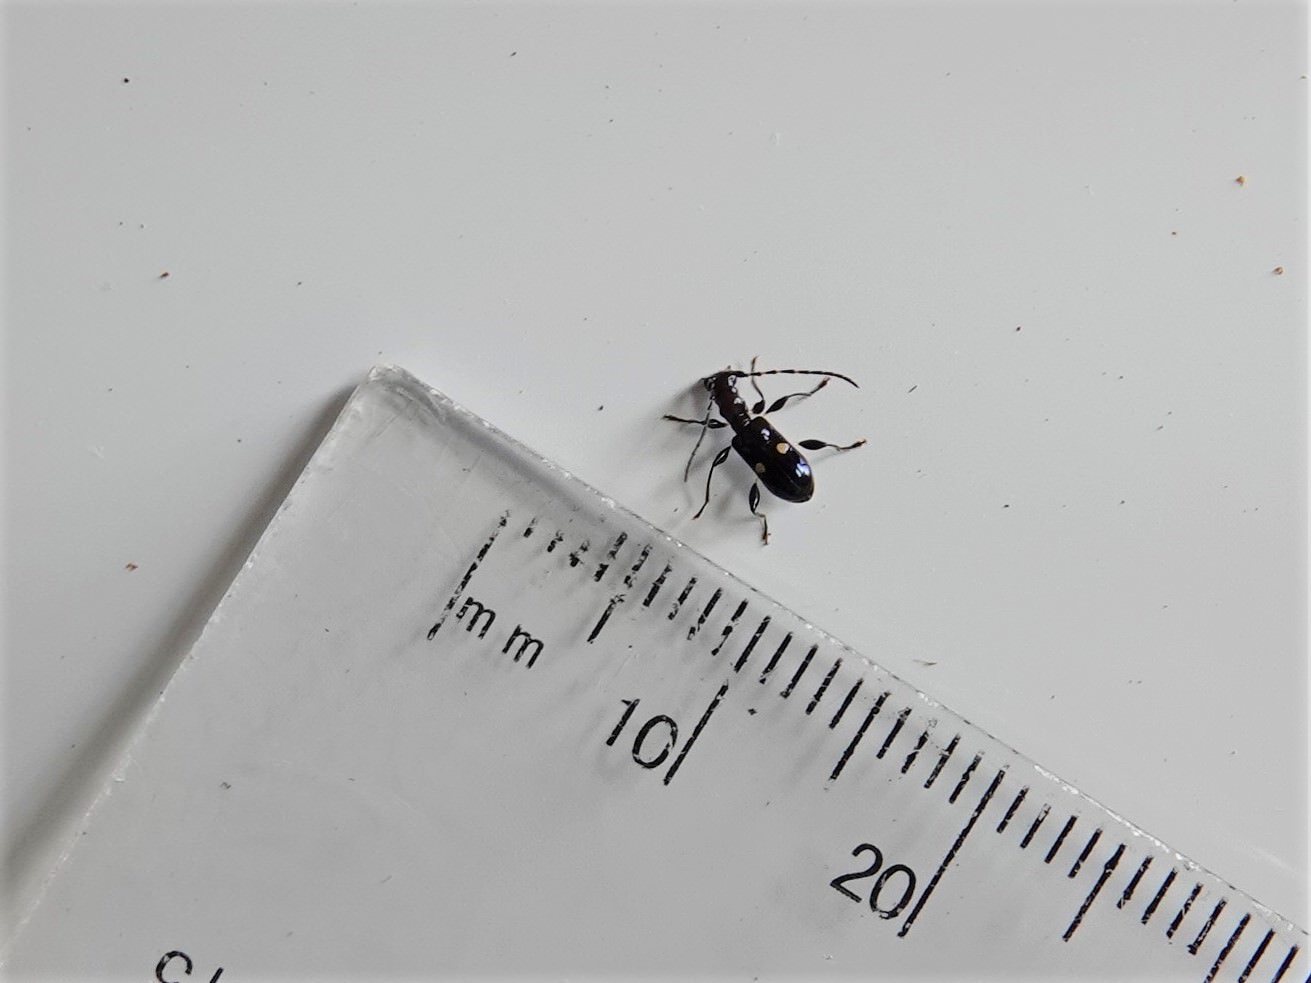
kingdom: Animalia
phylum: Arthropoda
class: Insecta
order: Coleoptera
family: Cerambycidae
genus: Zorion
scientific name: Zorion batesi
